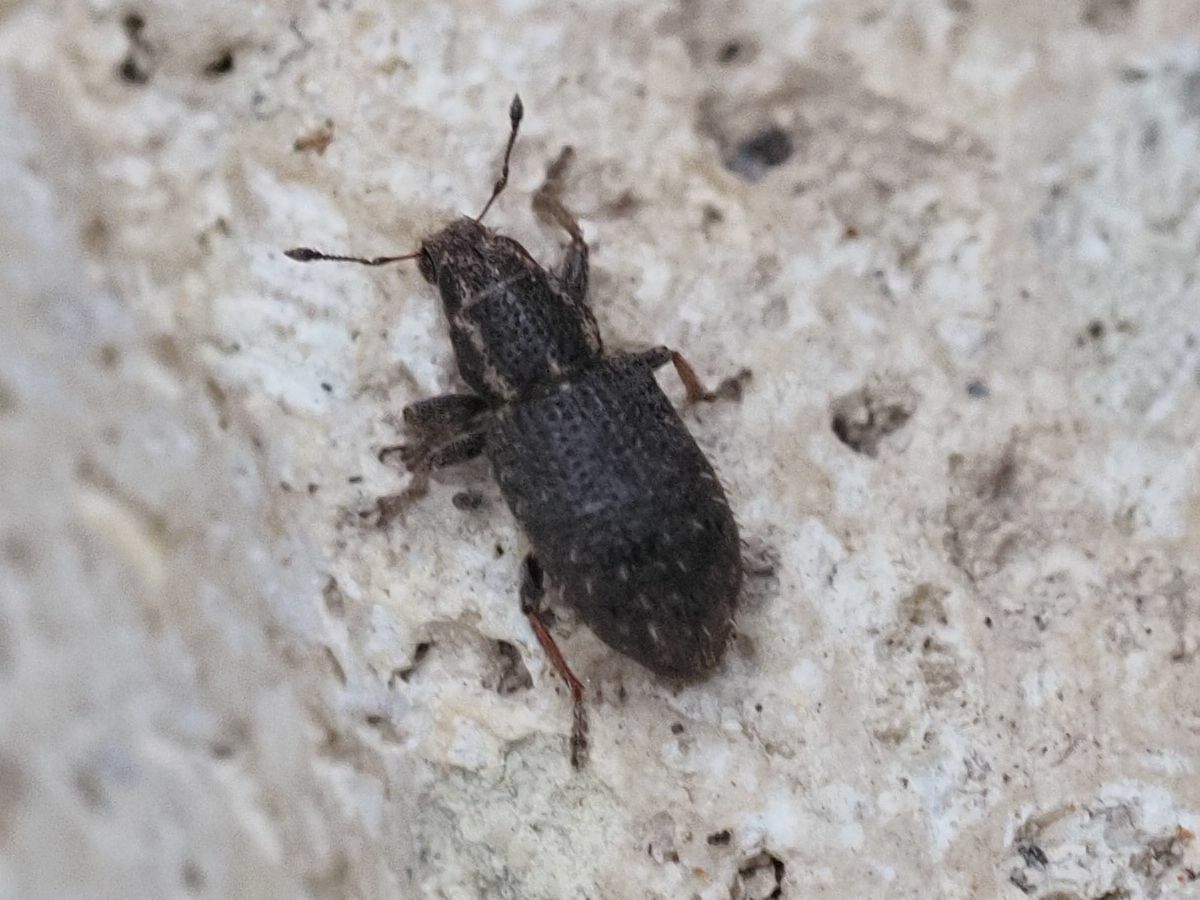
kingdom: Animalia
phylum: Arthropoda
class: Insecta
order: Coleoptera
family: Curculionidae
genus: Sitona
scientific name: Sitona hispidulus
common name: Clover weevil
